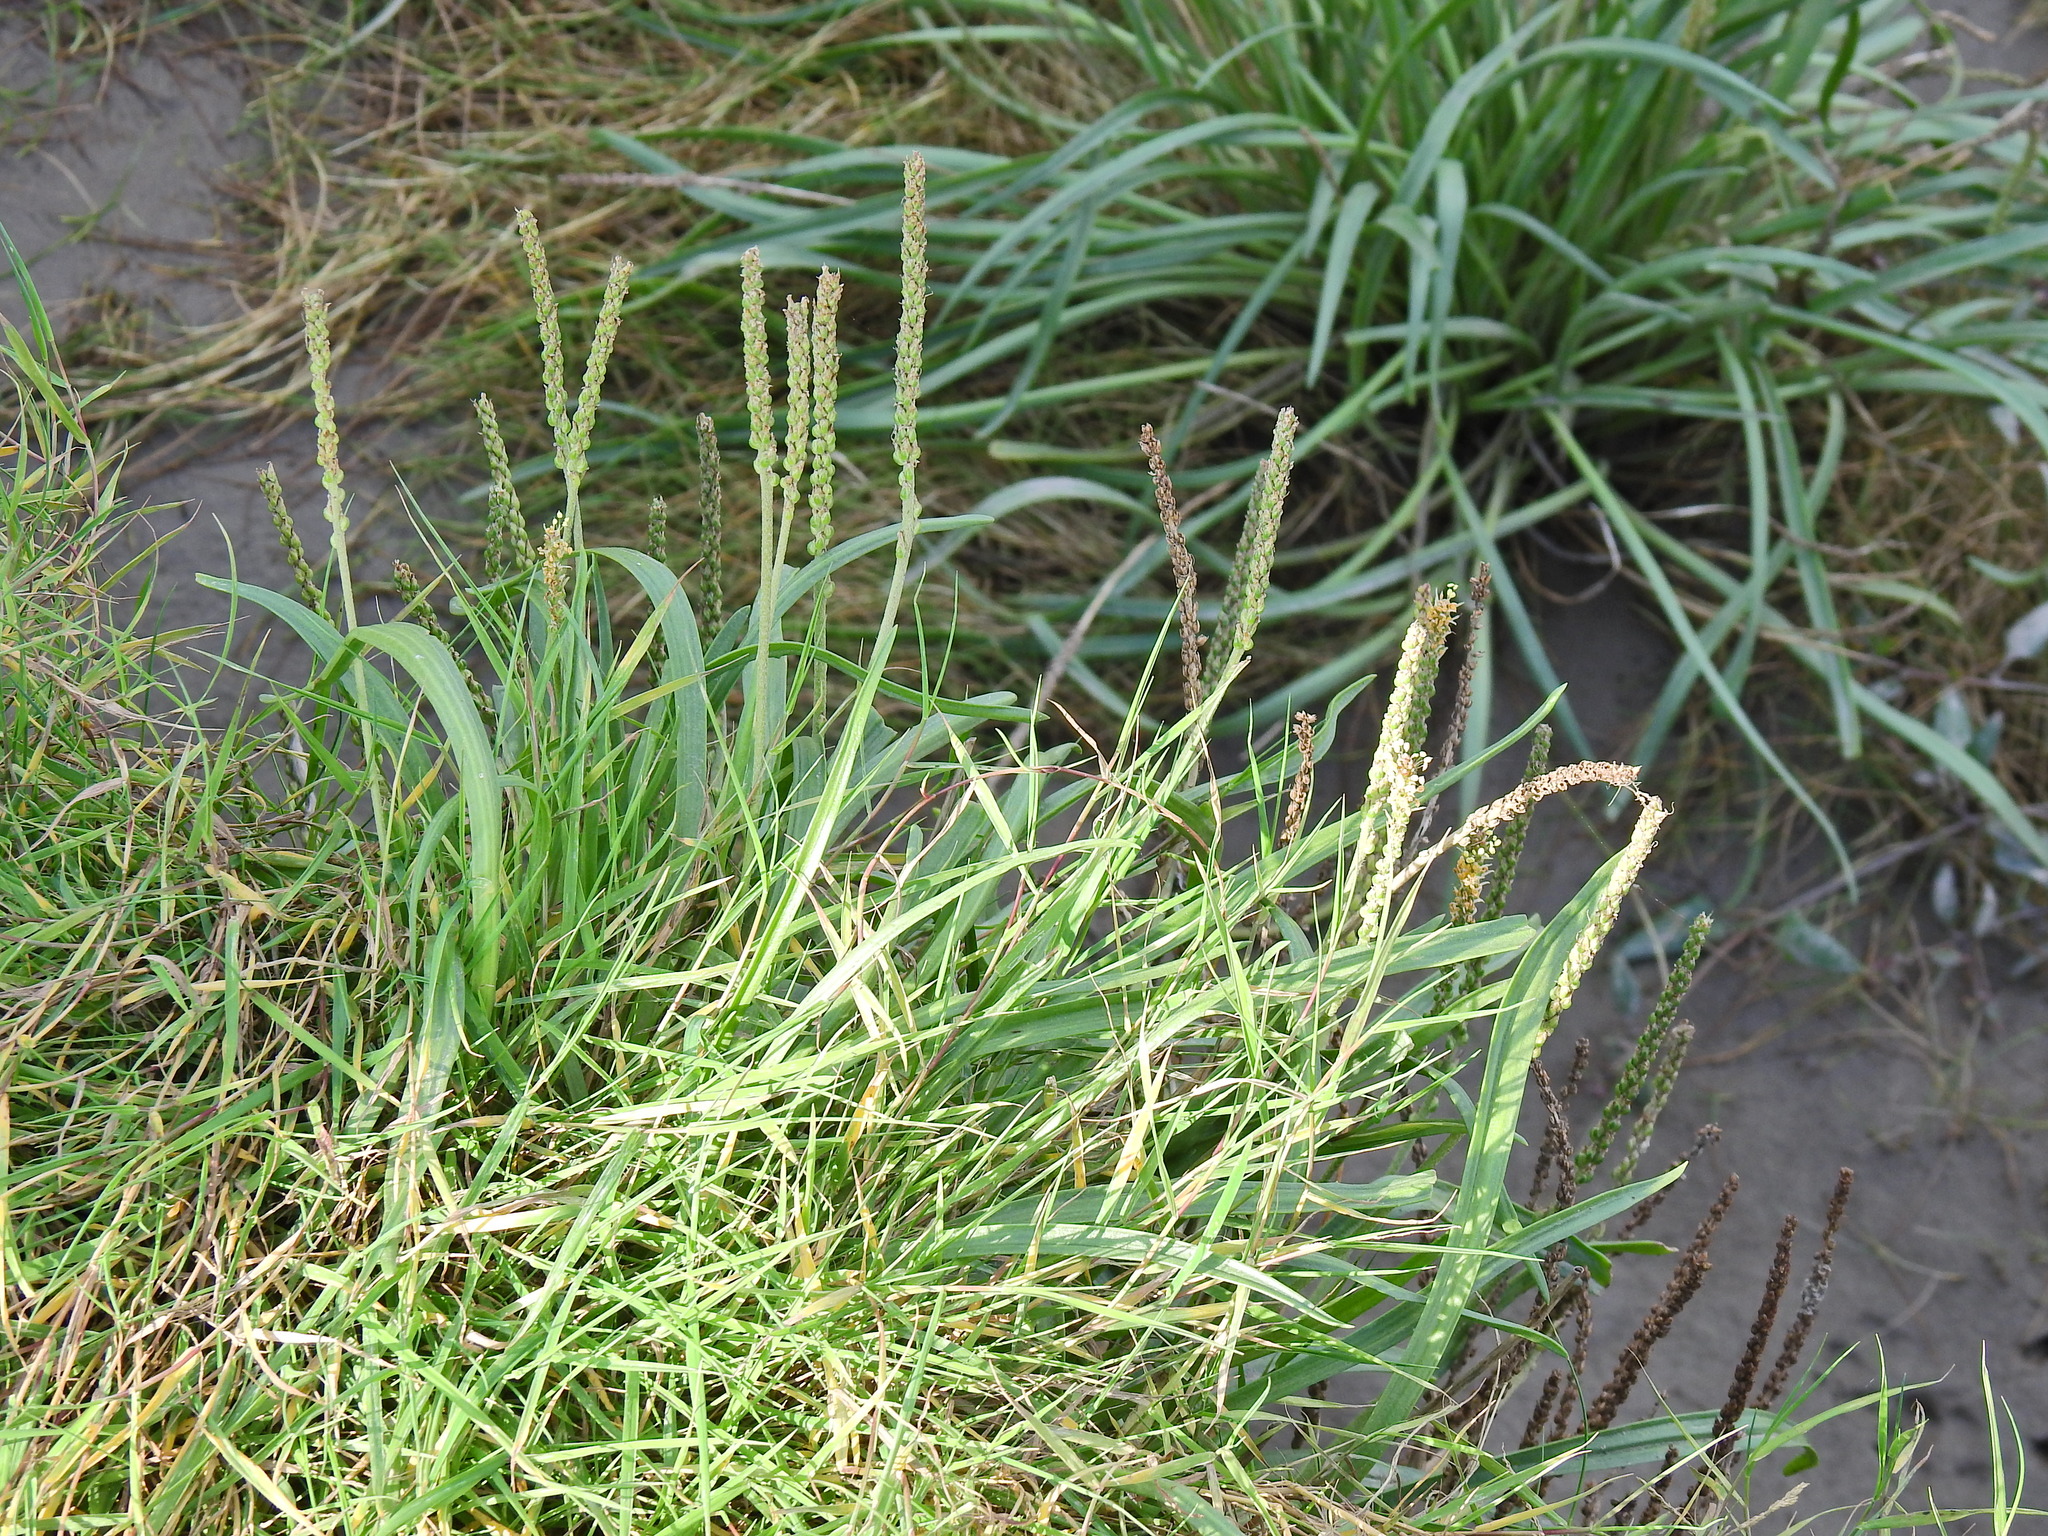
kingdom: Plantae
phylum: Tracheophyta
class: Magnoliopsida
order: Lamiales
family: Plantaginaceae
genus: Plantago
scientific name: Plantago maritima
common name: Sea plantain
